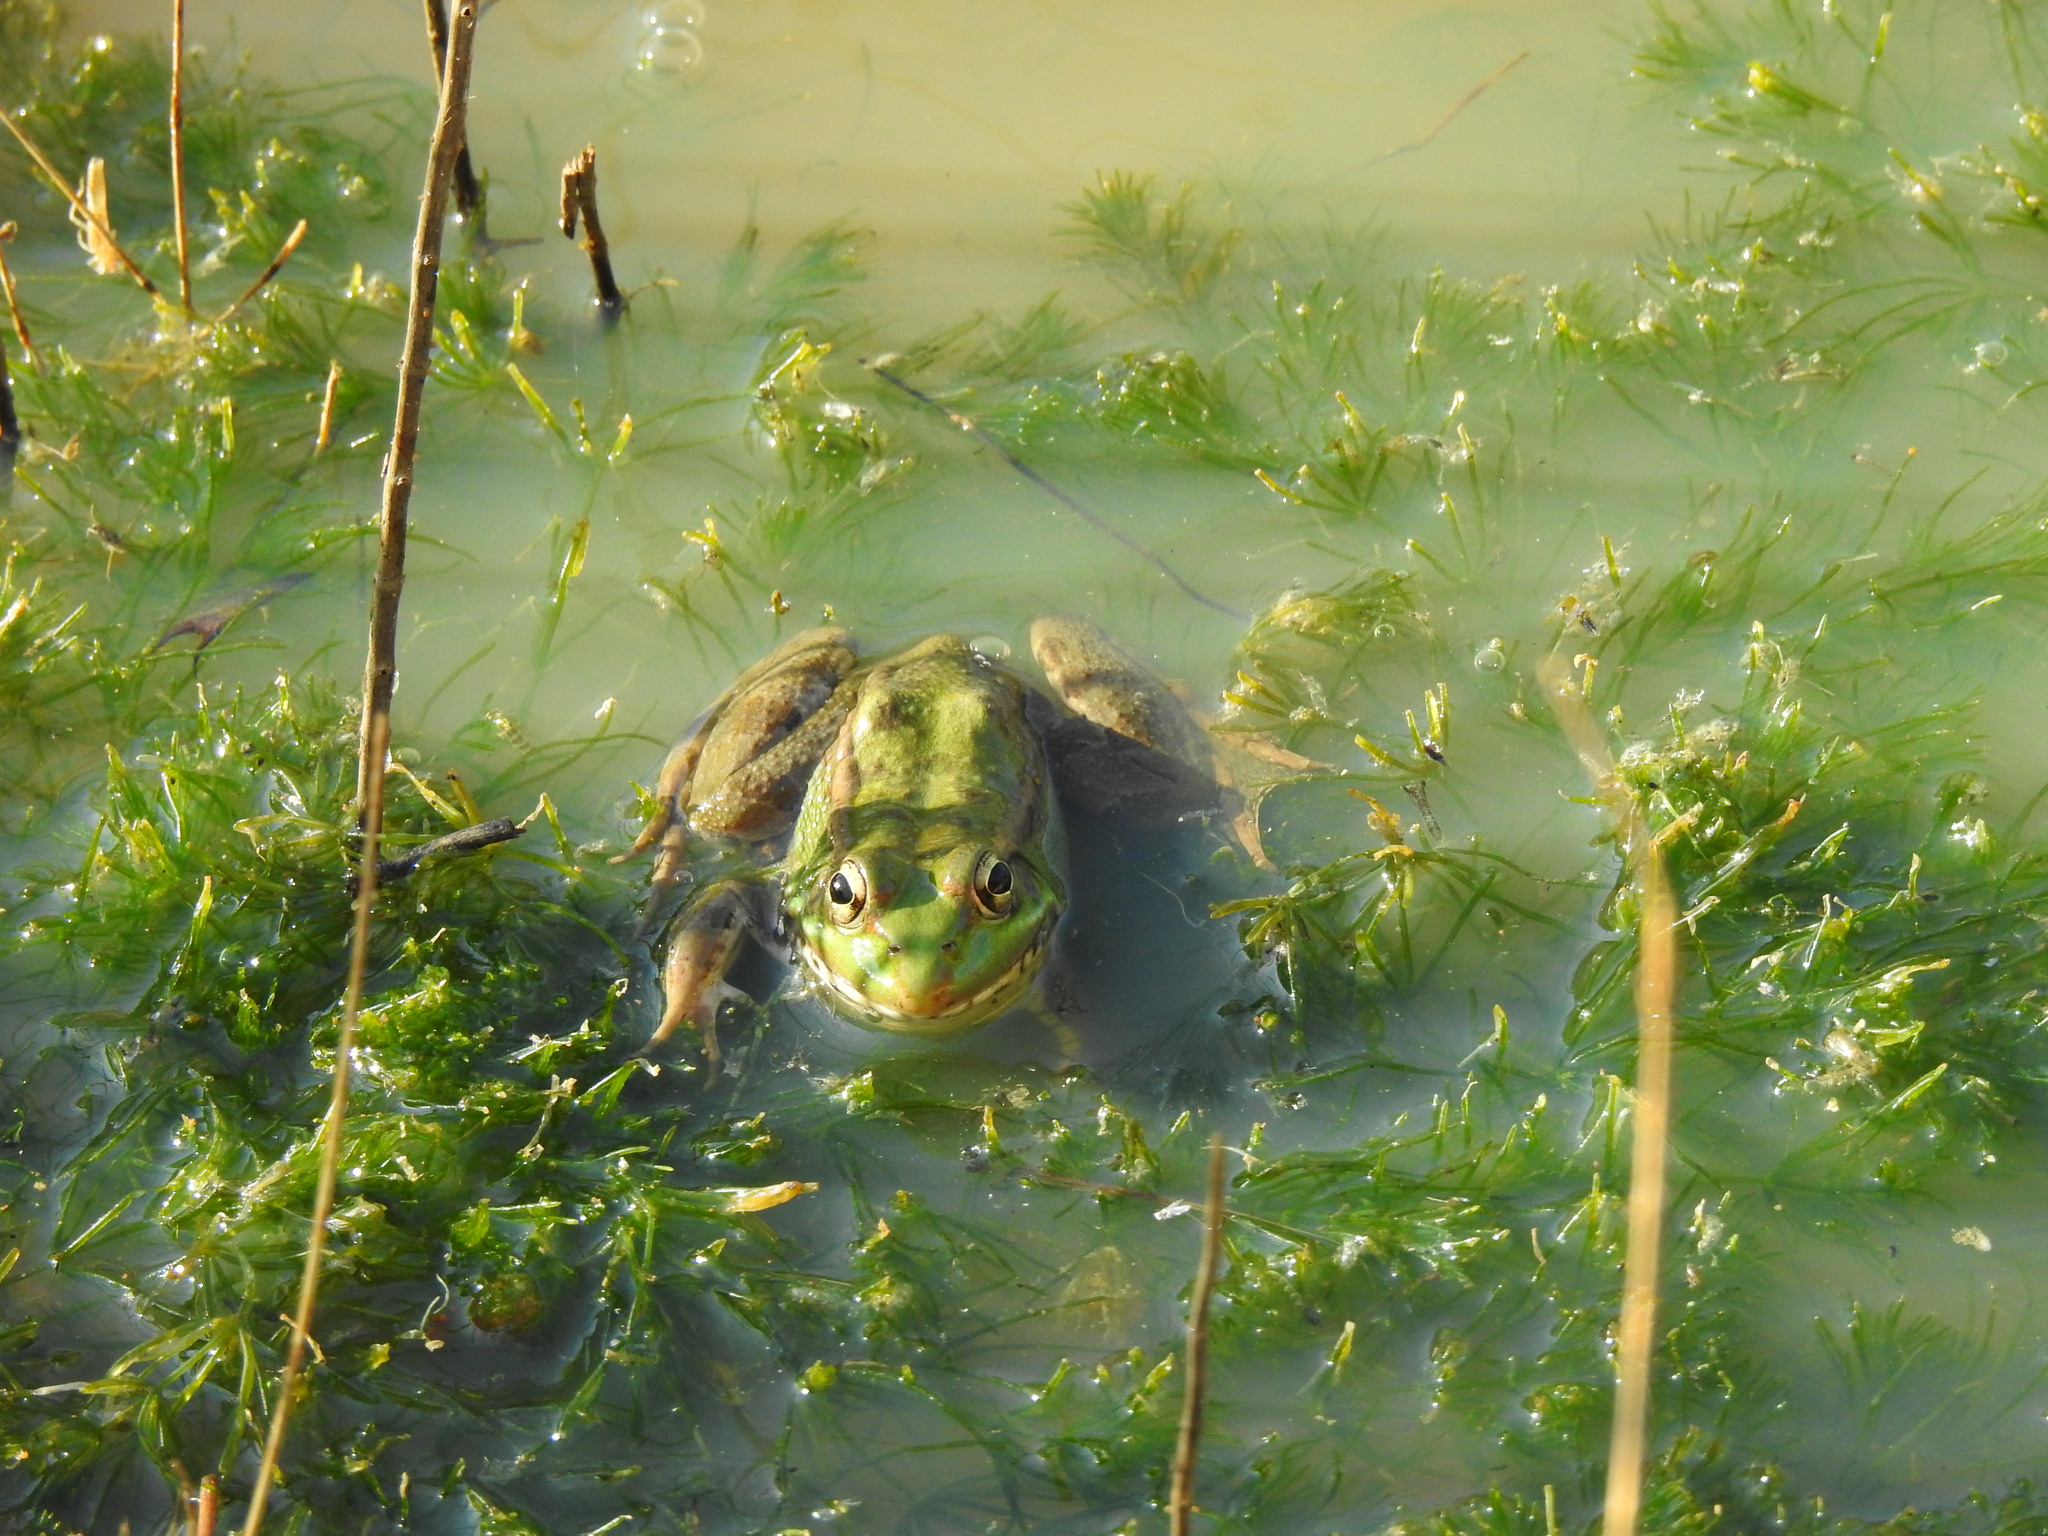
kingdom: Animalia
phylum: Chordata
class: Amphibia
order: Anura
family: Ranidae
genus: Pelophylax
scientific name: Pelophylax perezi
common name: Perez's frog
